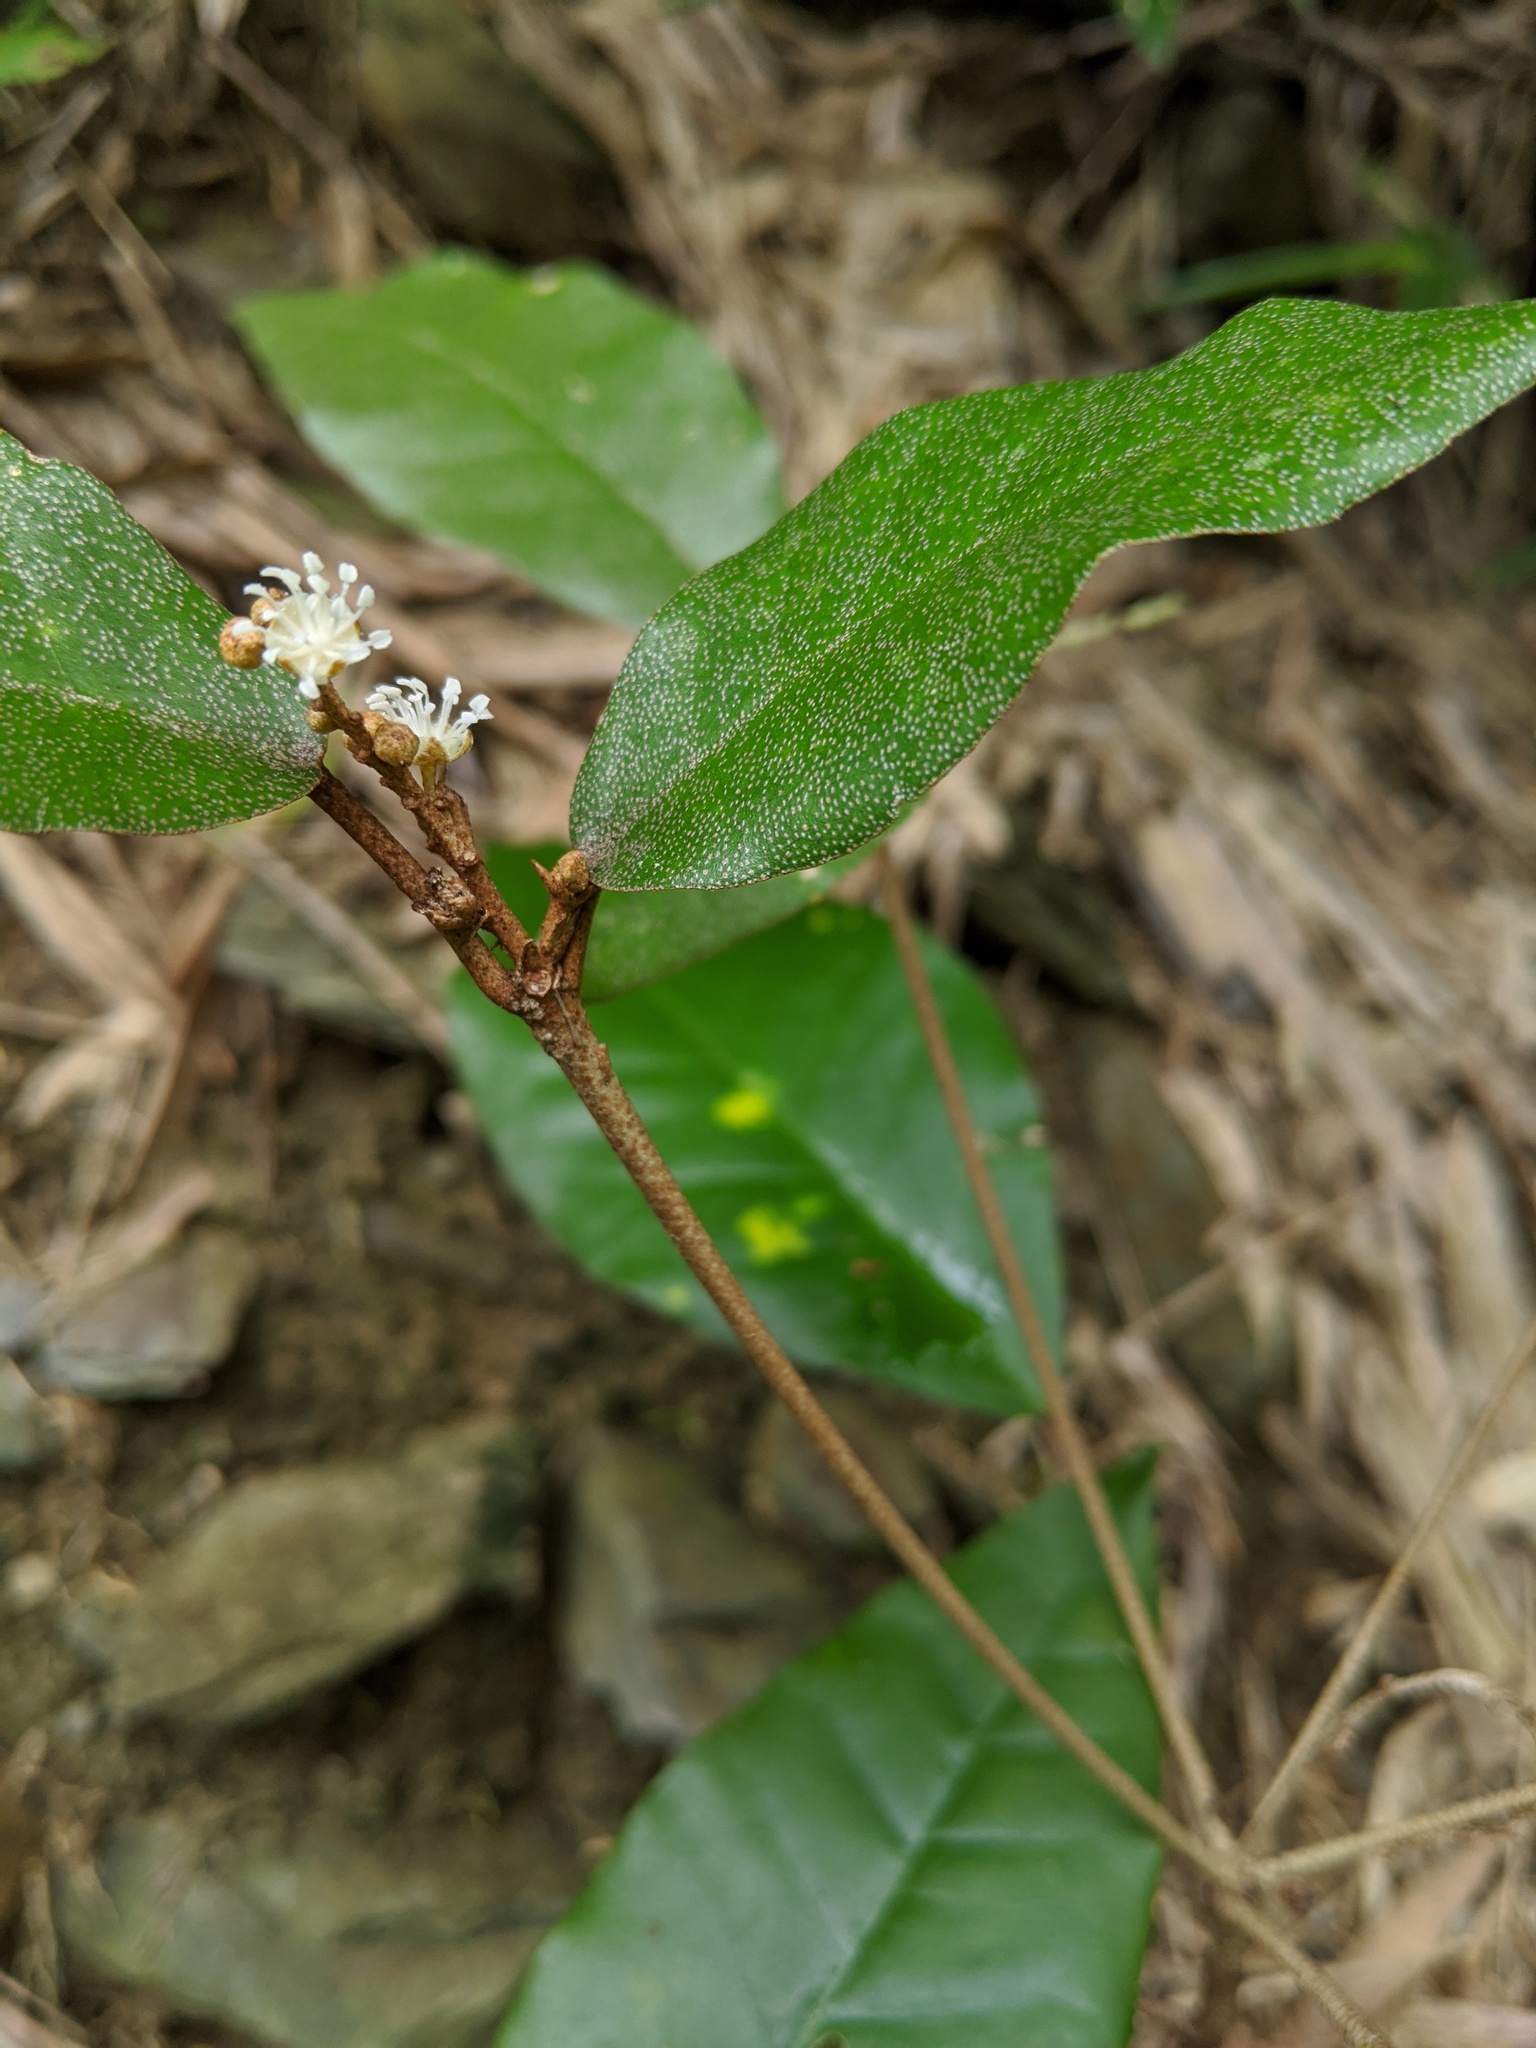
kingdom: Plantae
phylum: Tracheophyta
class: Magnoliopsida
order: Malpighiales
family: Euphorbiaceae
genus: Croton
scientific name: Croton cascarilloides
